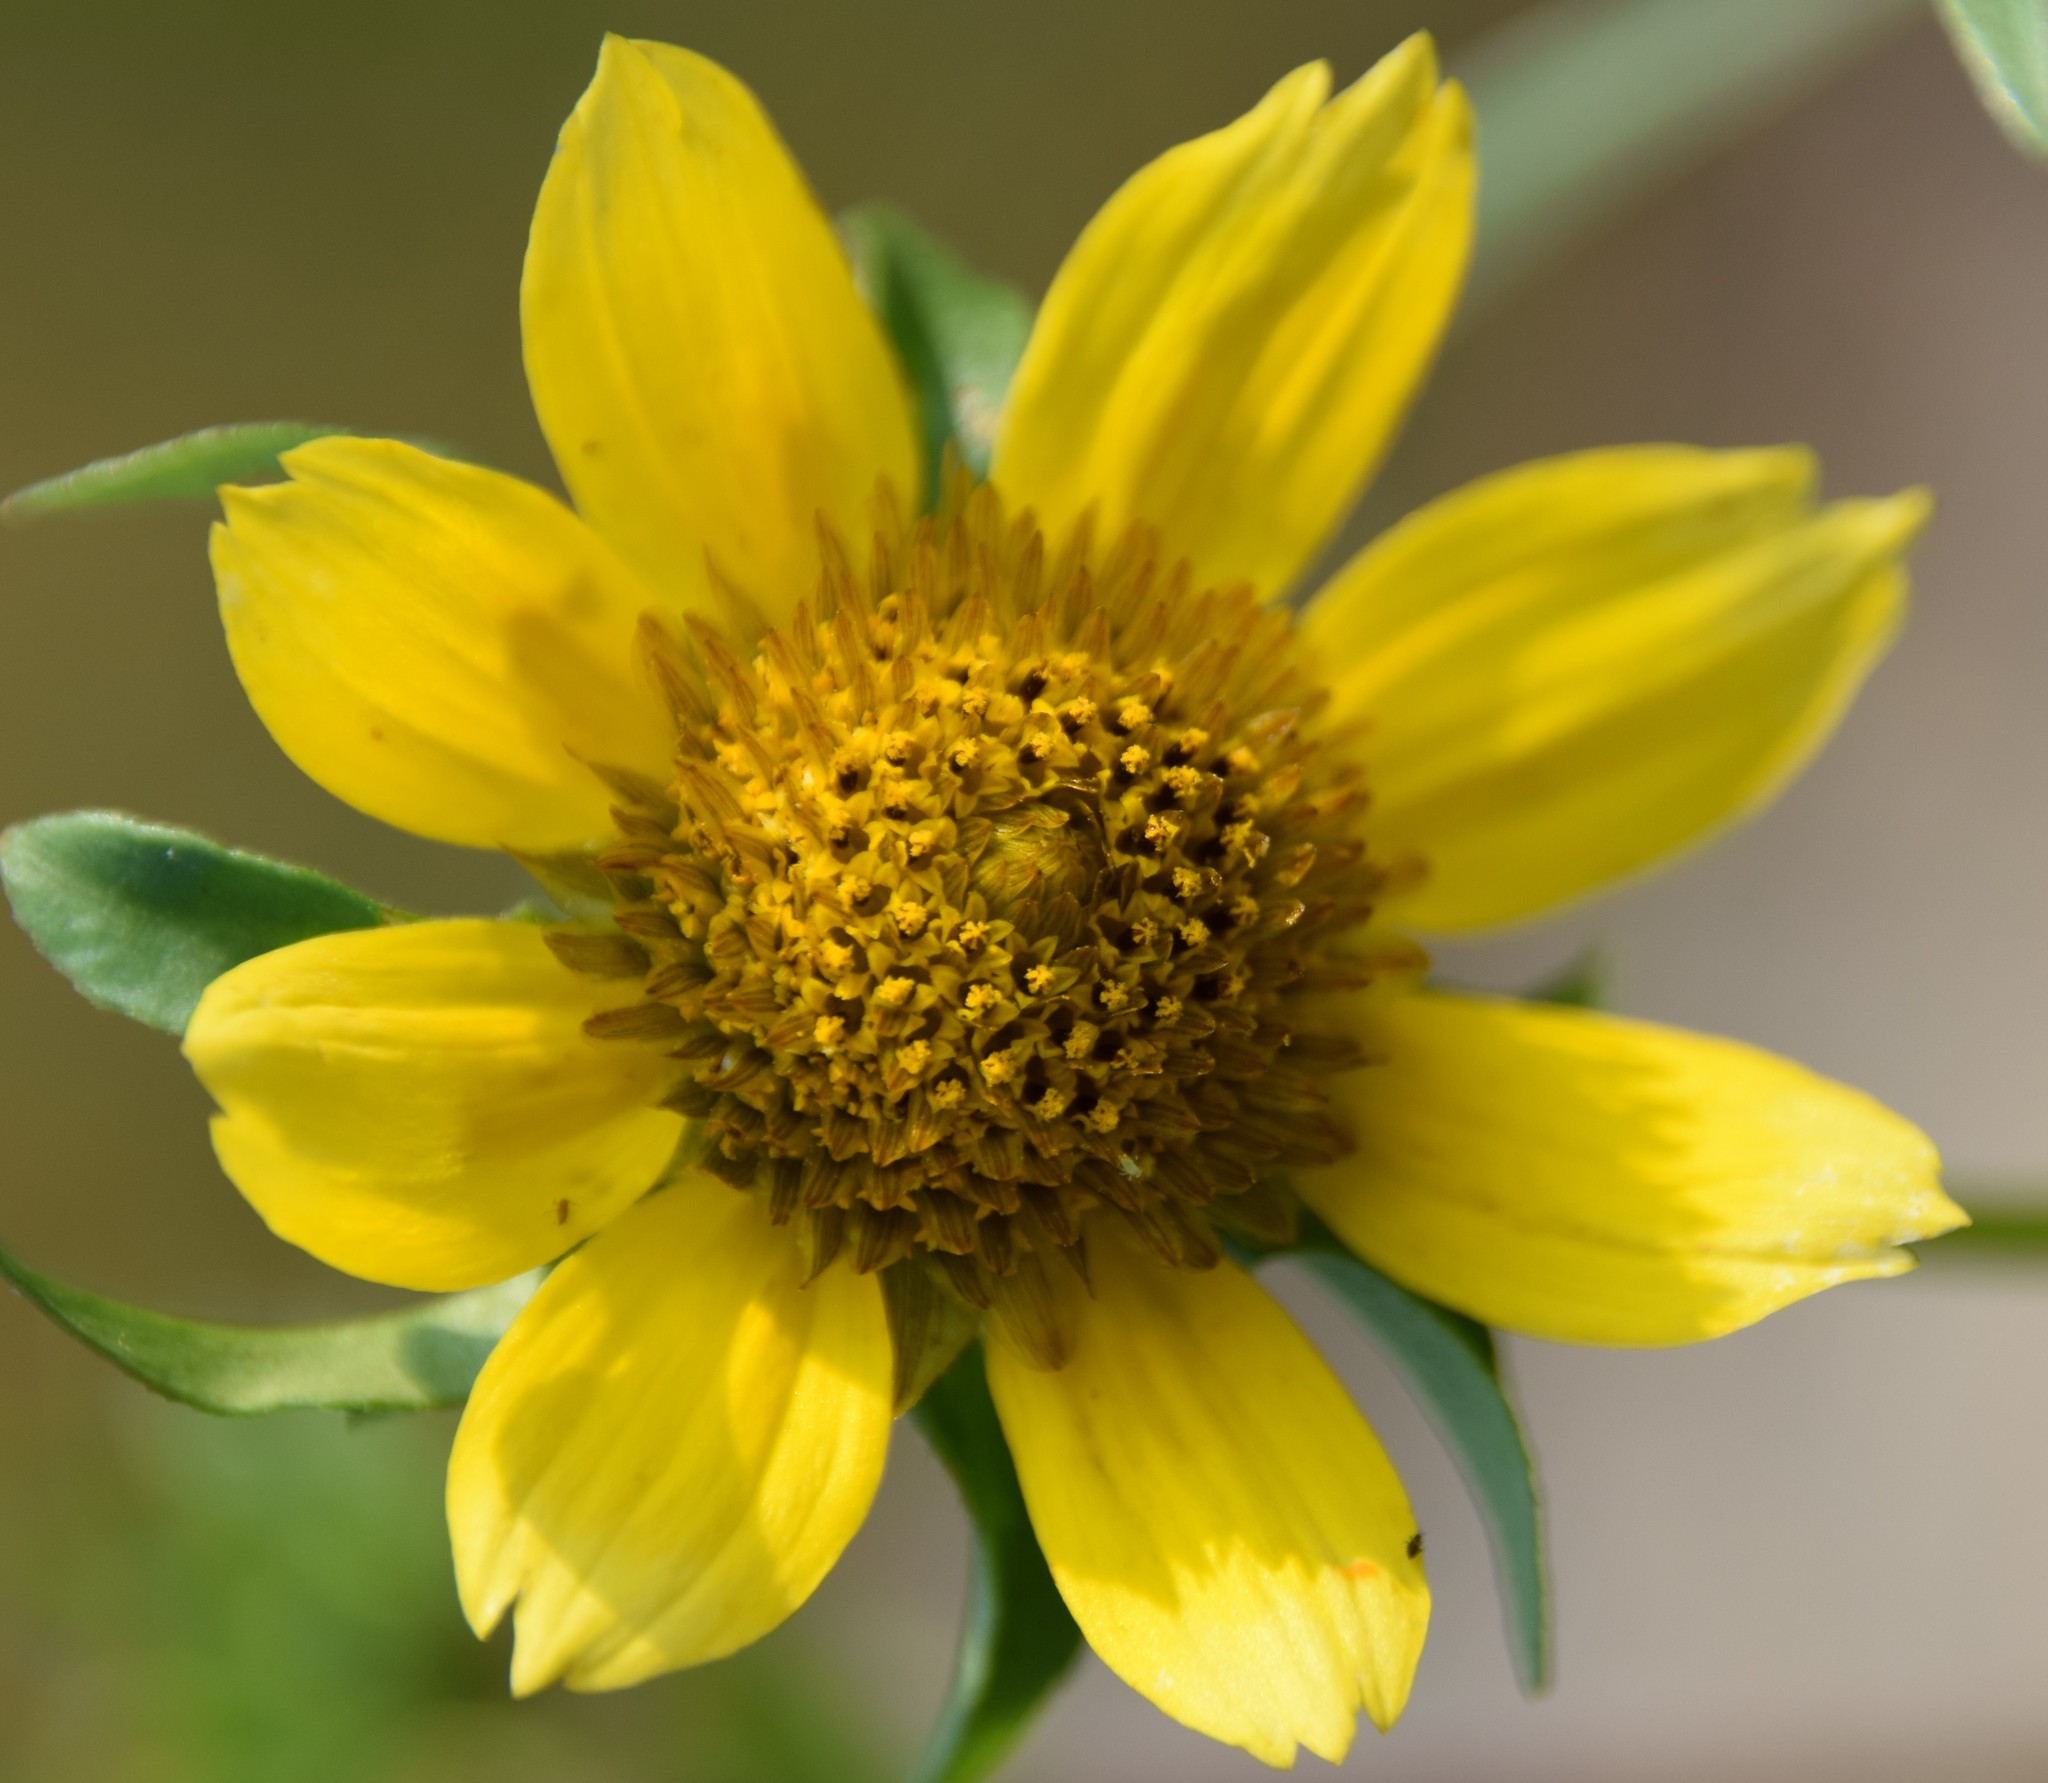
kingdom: Plantae
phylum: Tracheophyta
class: Magnoliopsida
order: Asterales
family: Asteraceae
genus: Bidens
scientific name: Bidens cernua
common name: Nodding bur-marigold
